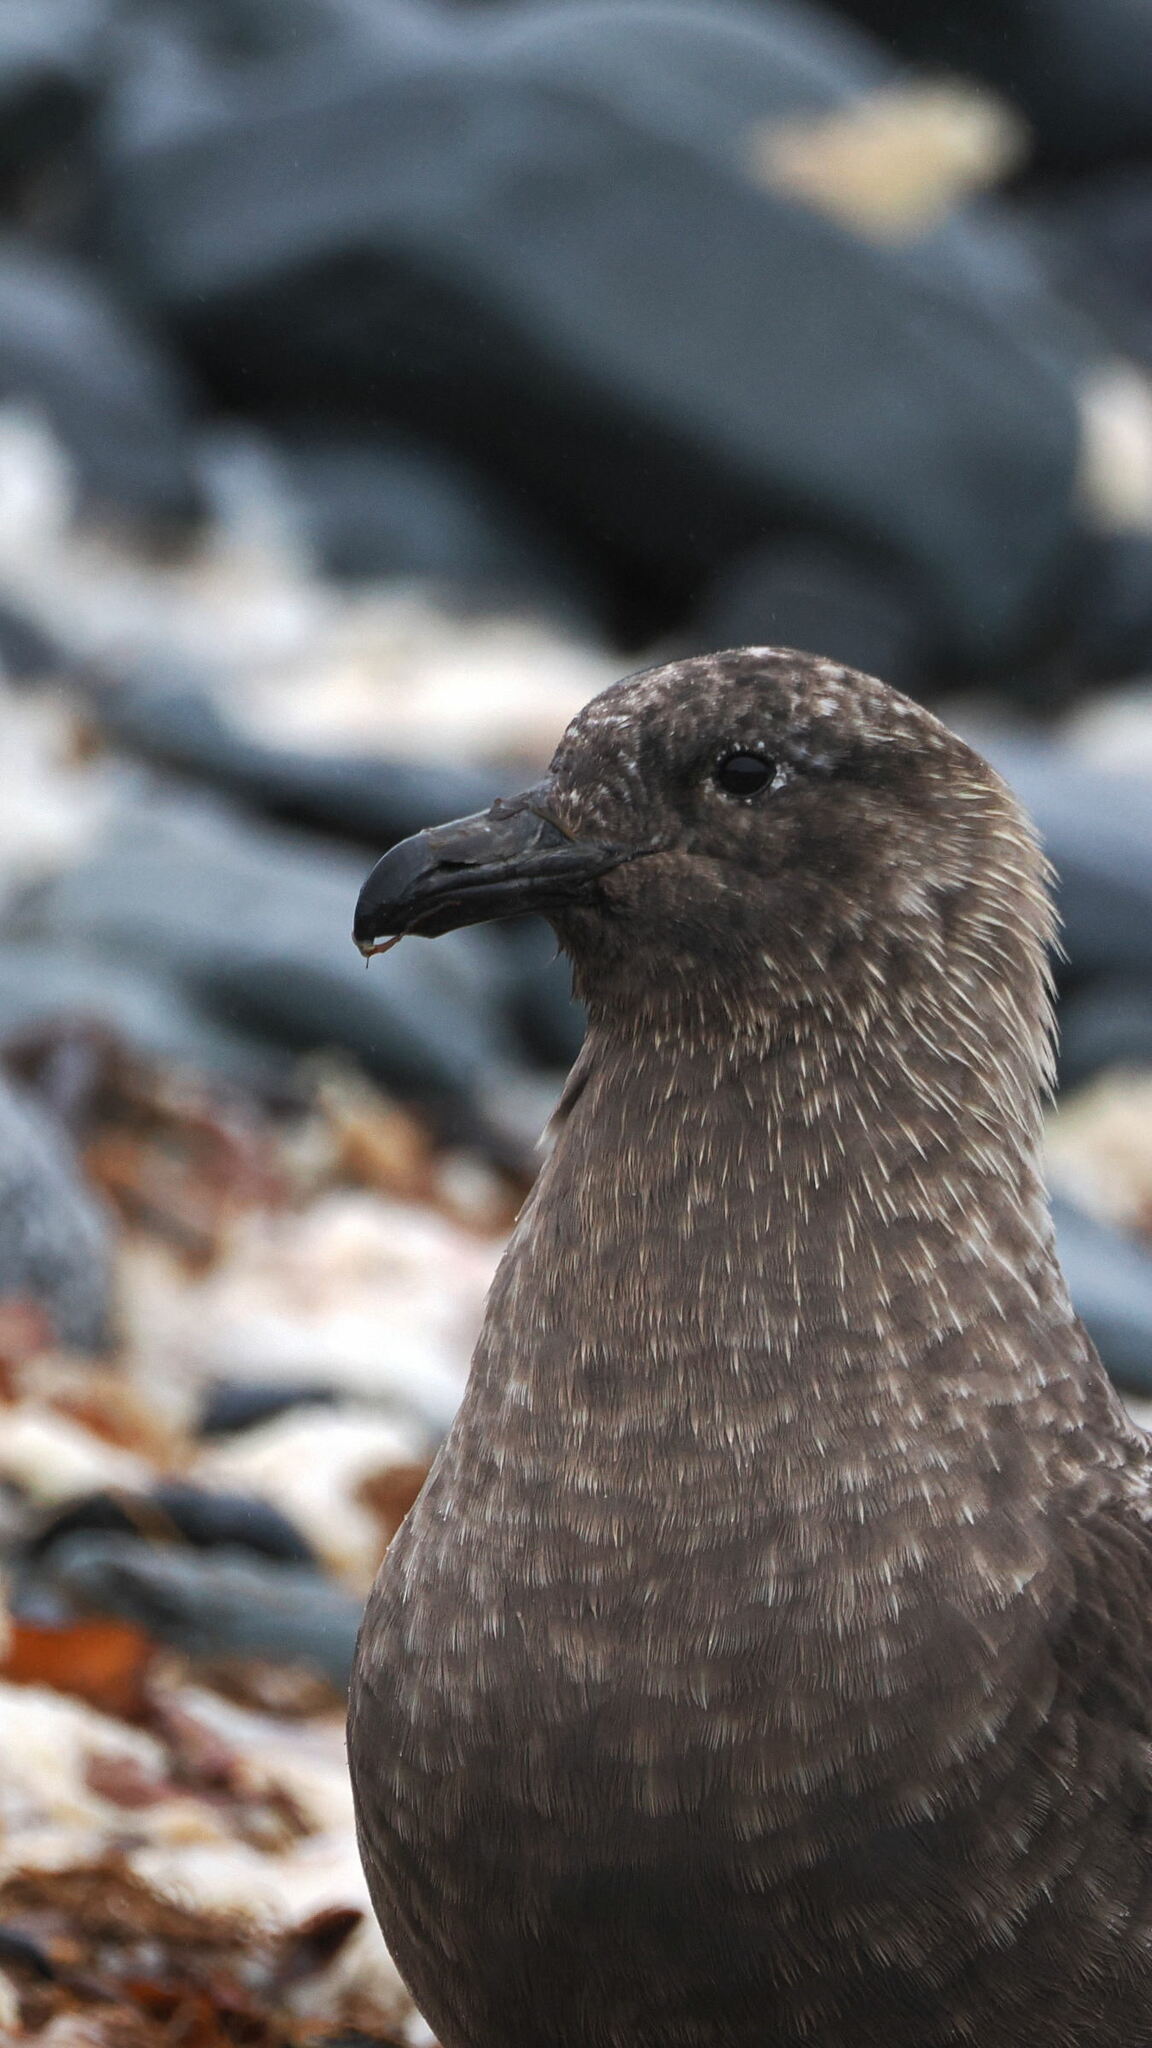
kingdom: Animalia
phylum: Chordata
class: Aves
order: Charadriiformes
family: Stercorariidae
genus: Stercorarius
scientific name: Stercorarius antarcticus
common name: Brown skua
